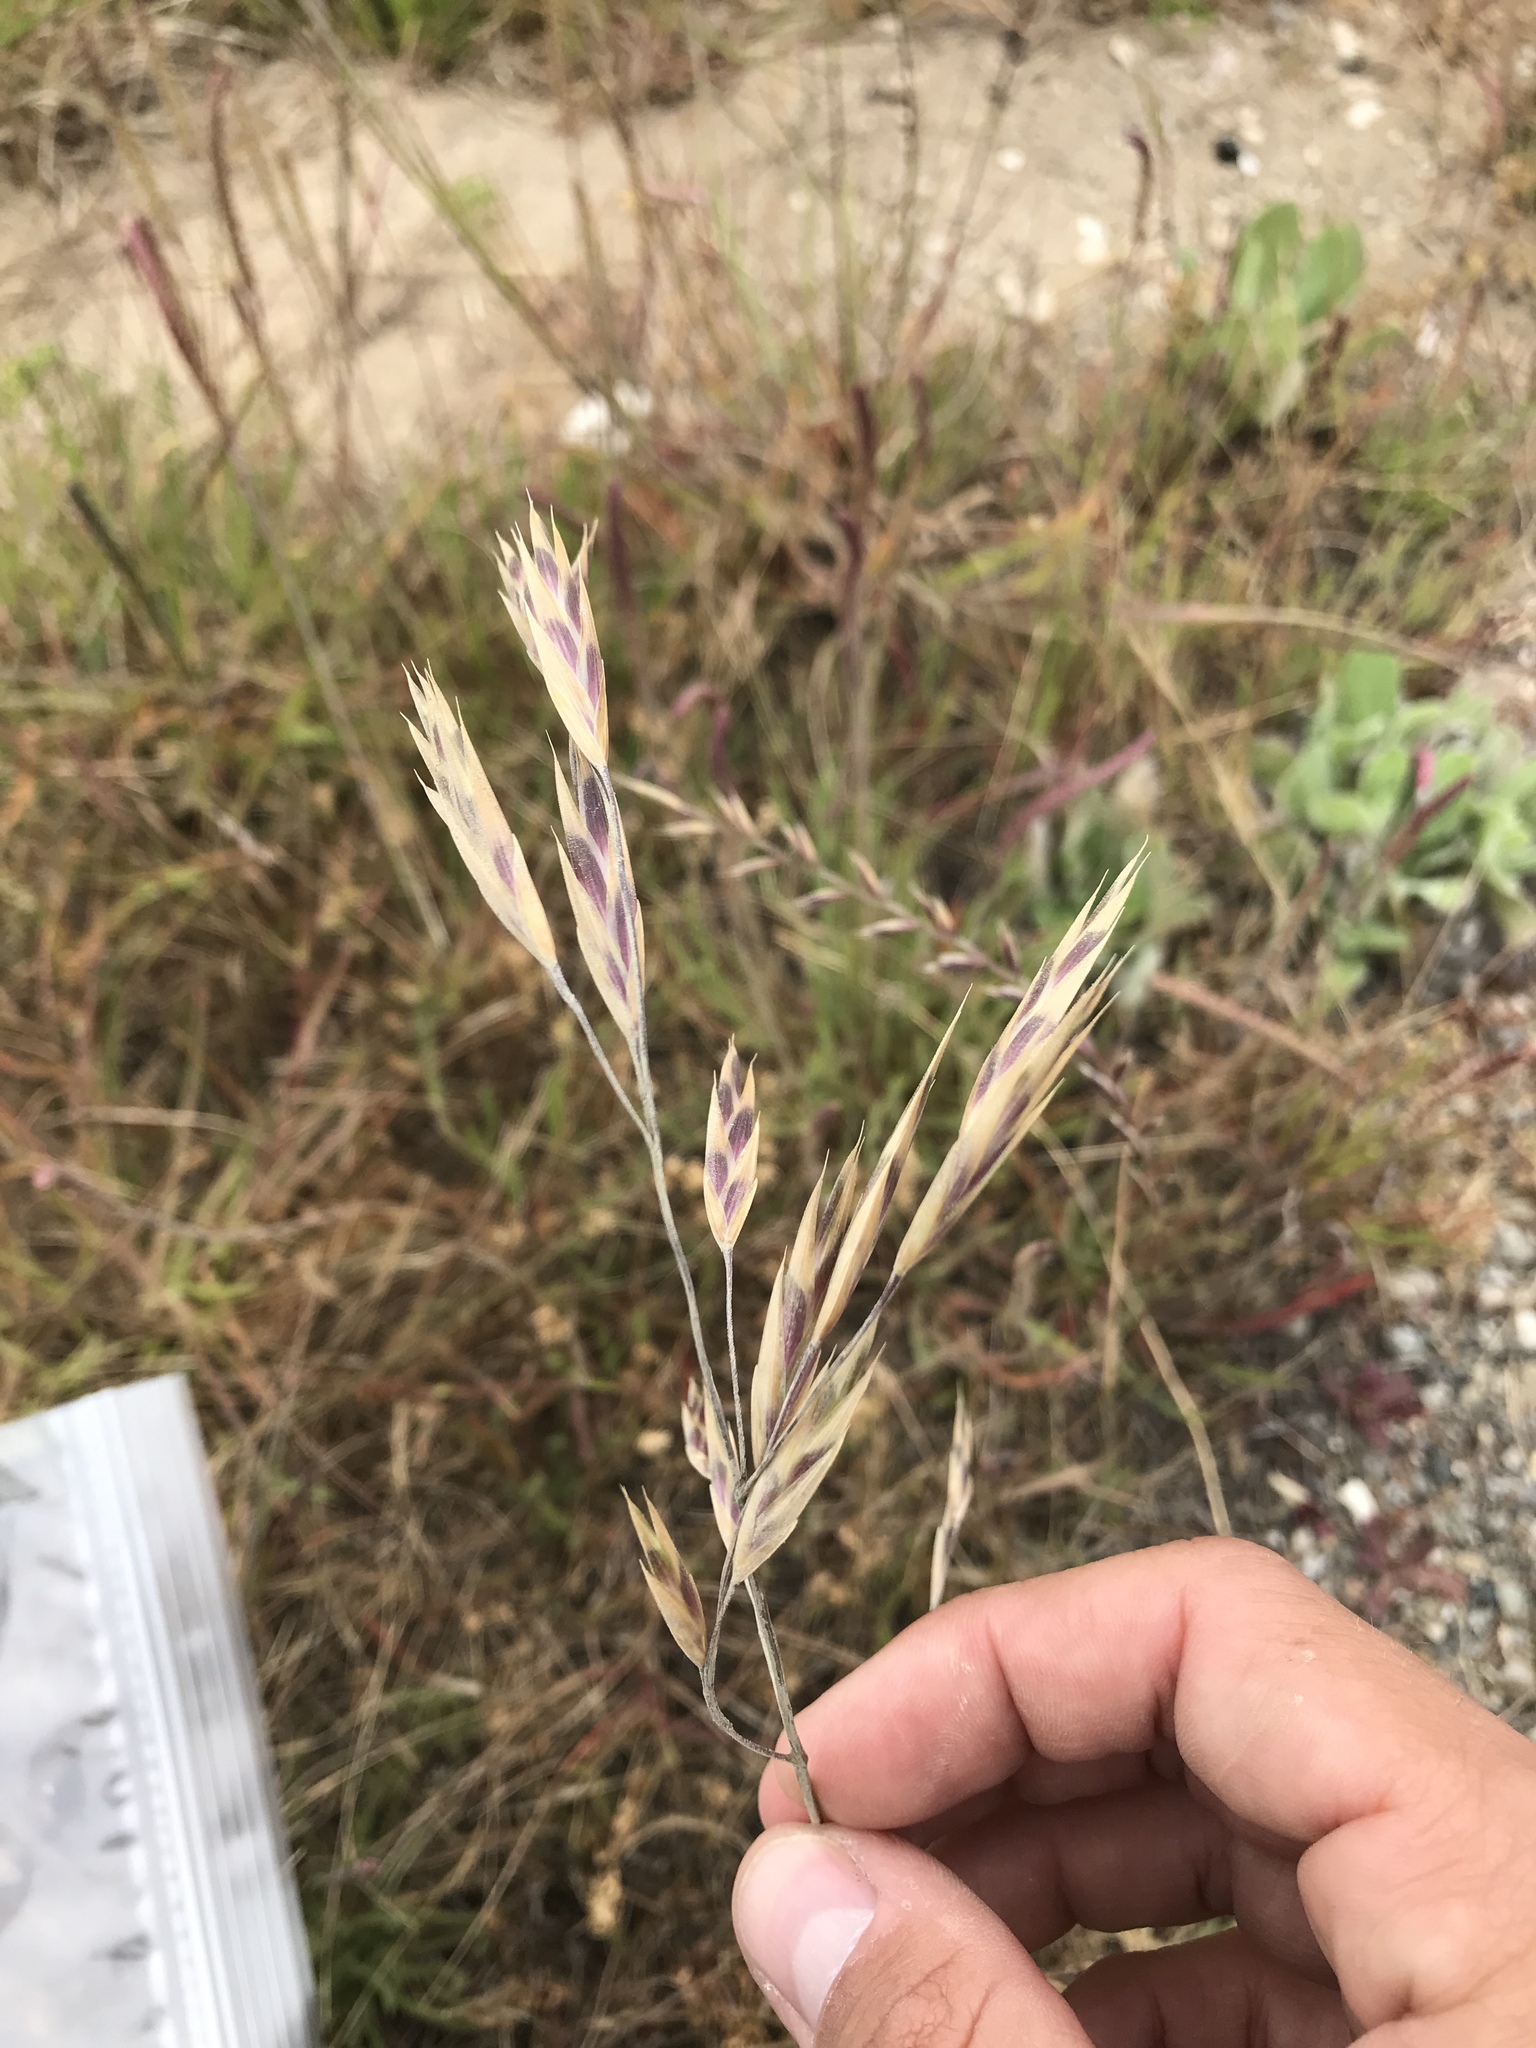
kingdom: Plantae
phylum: Tracheophyta
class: Liliopsida
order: Poales
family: Poaceae
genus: Bromus
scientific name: Bromus catharticus
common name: Rescuegrass
